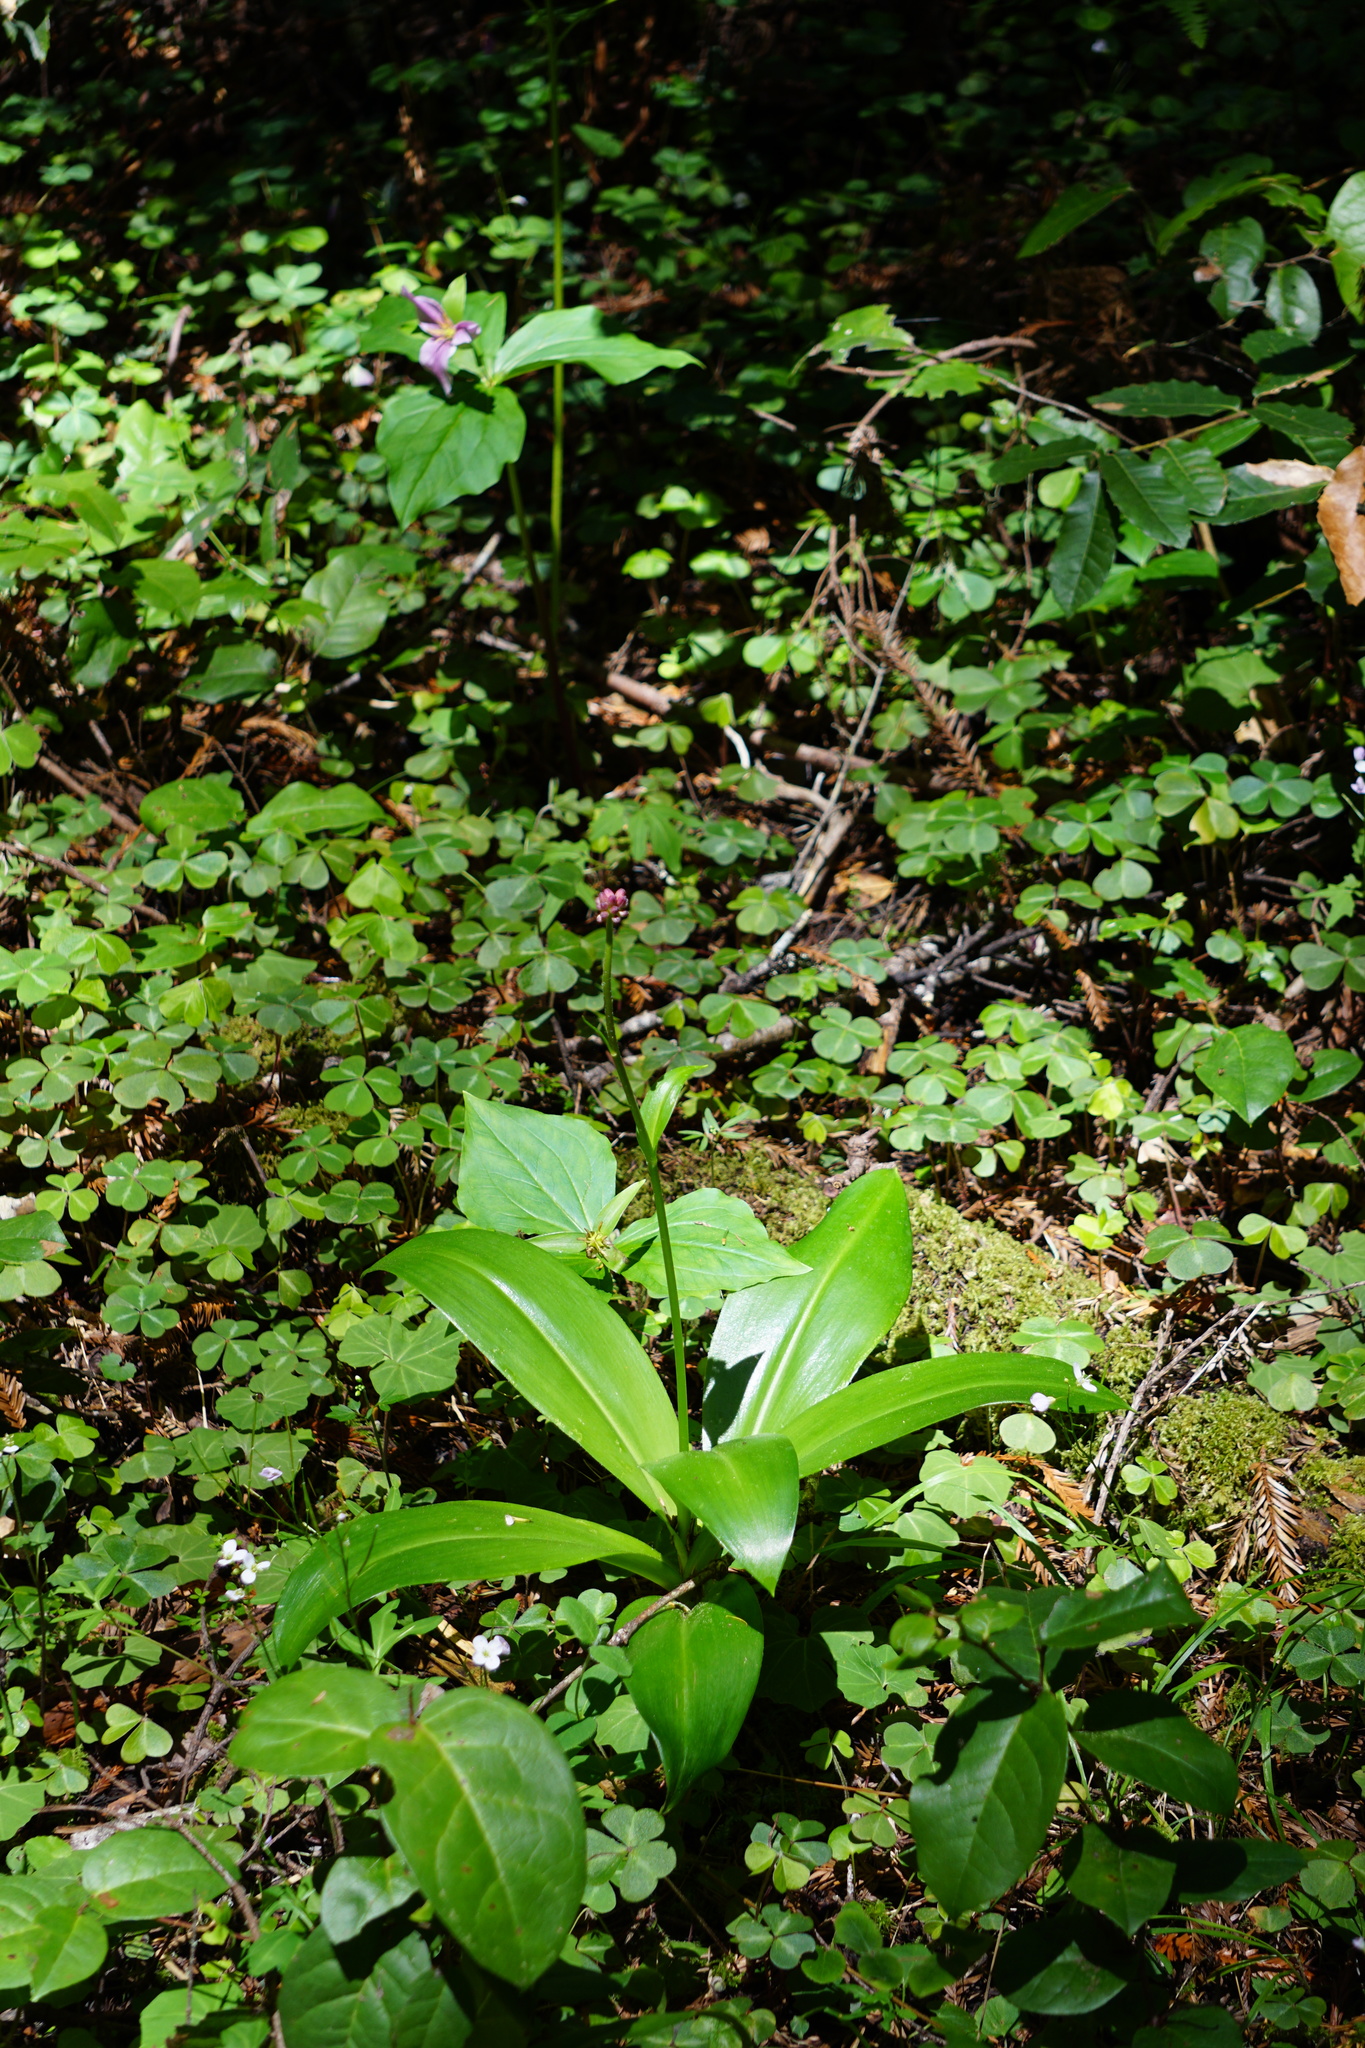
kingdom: Plantae
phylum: Tracheophyta
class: Liliopsida
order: Liliales
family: Liliaceae
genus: Clintonia
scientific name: Clintonia andrewsiana
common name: Red clintonia
